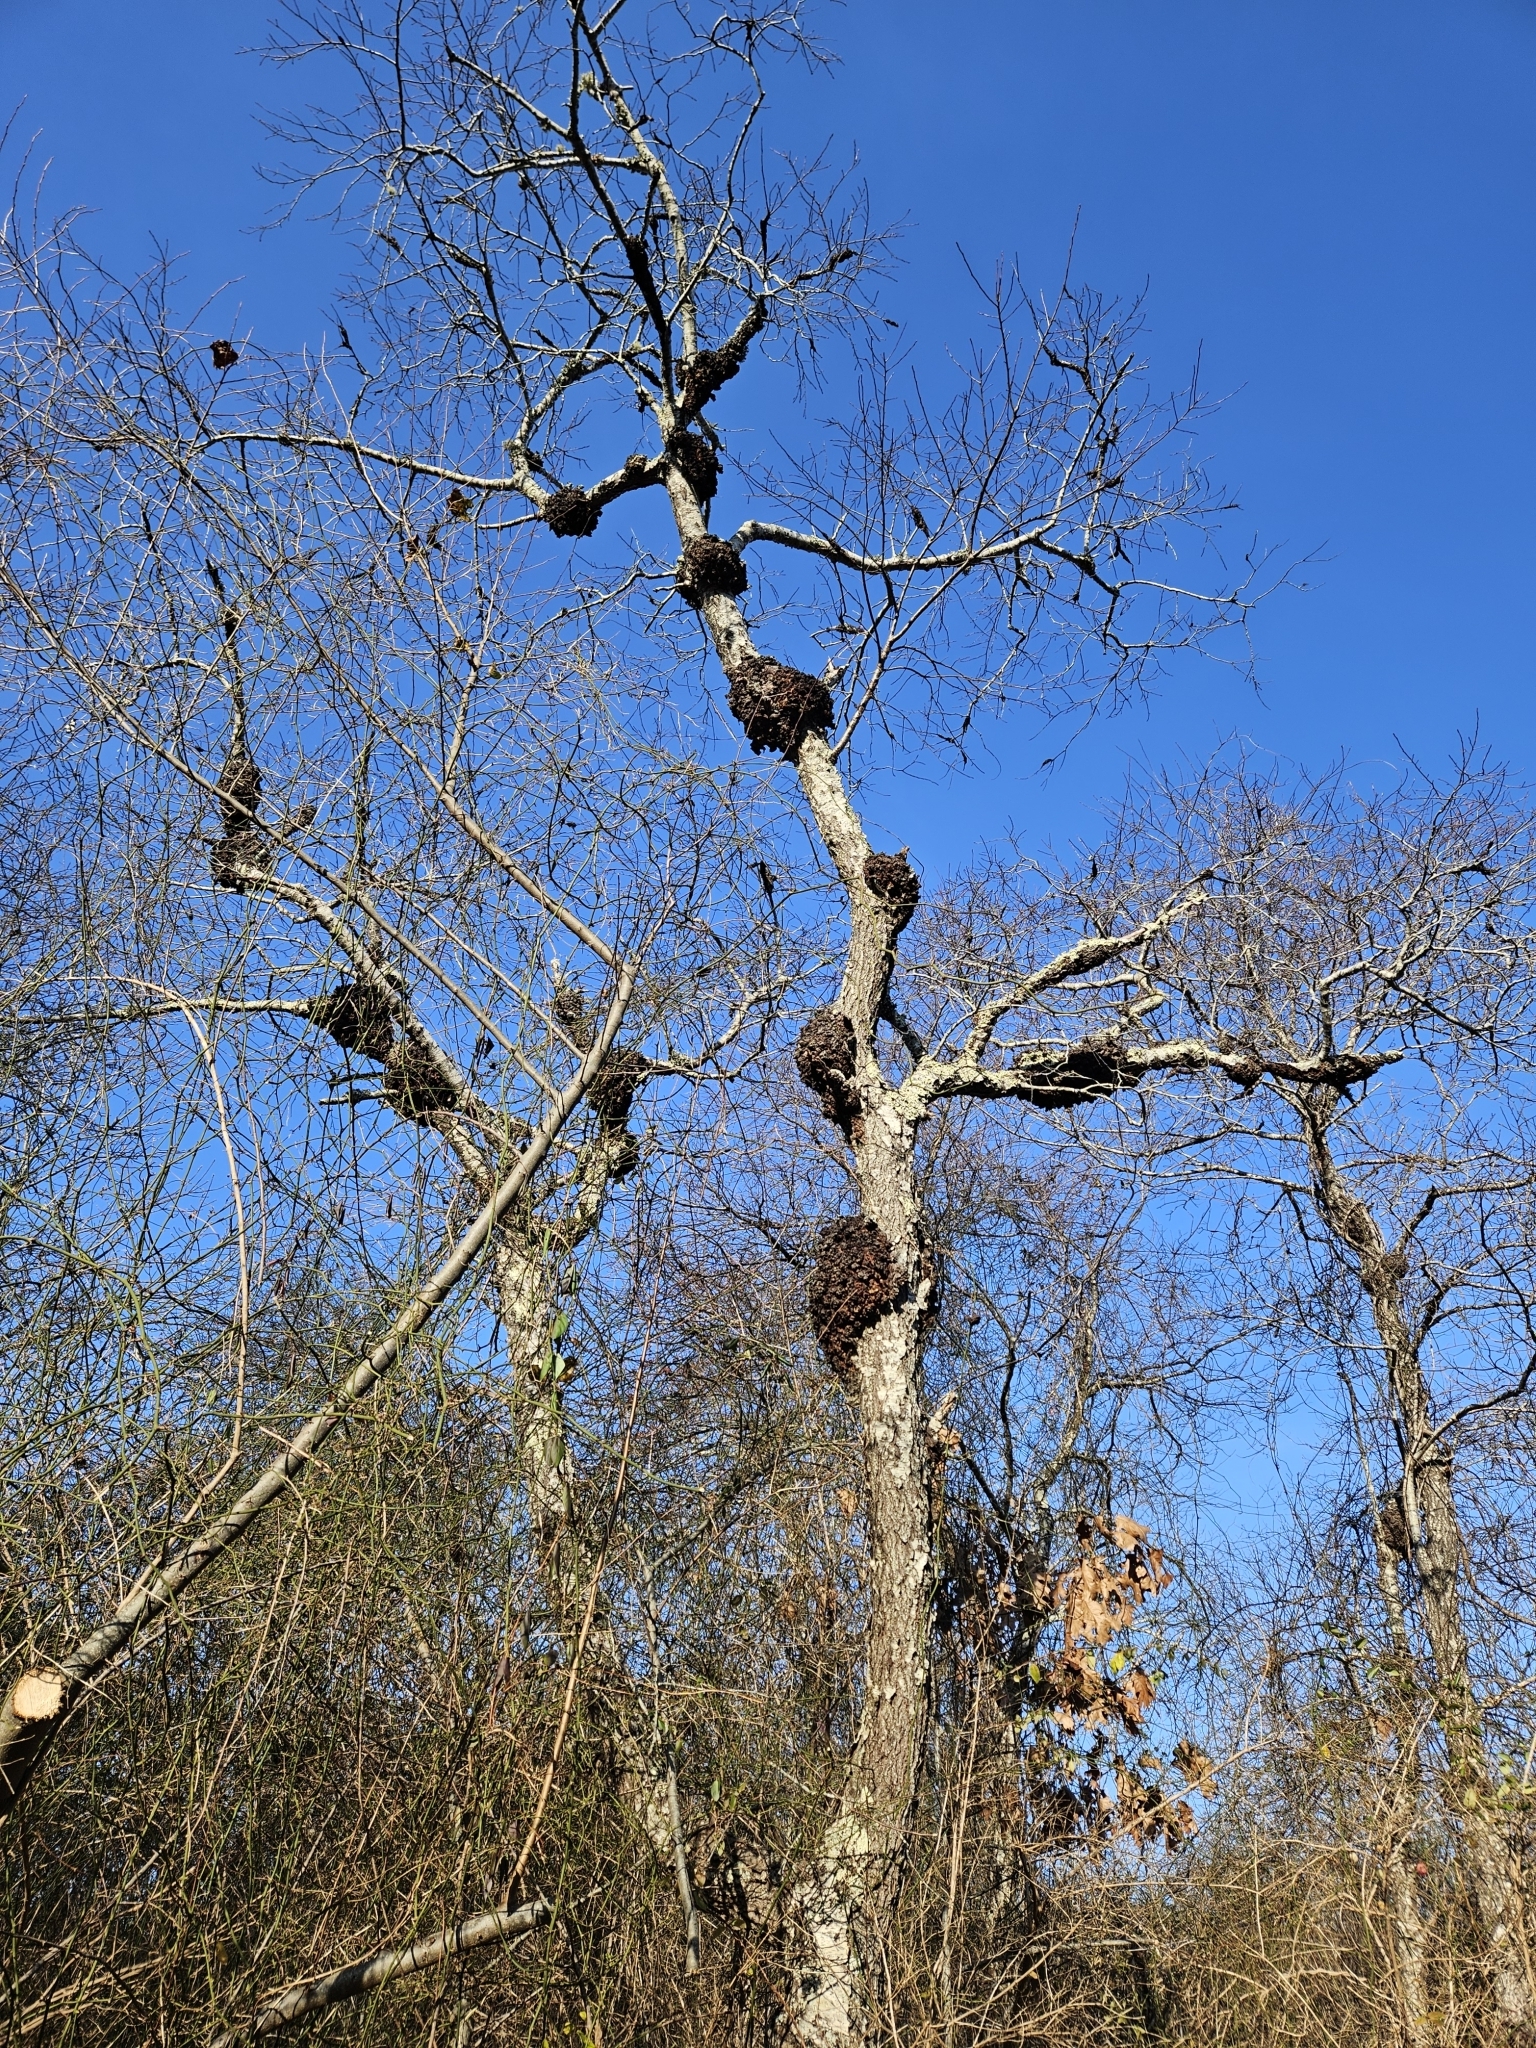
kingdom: Plantae
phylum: Tracheophyta
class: Magnoliopsida
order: Rosales
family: Rosaceae
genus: Prunus
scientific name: Prunus serotina
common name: Black cherry
